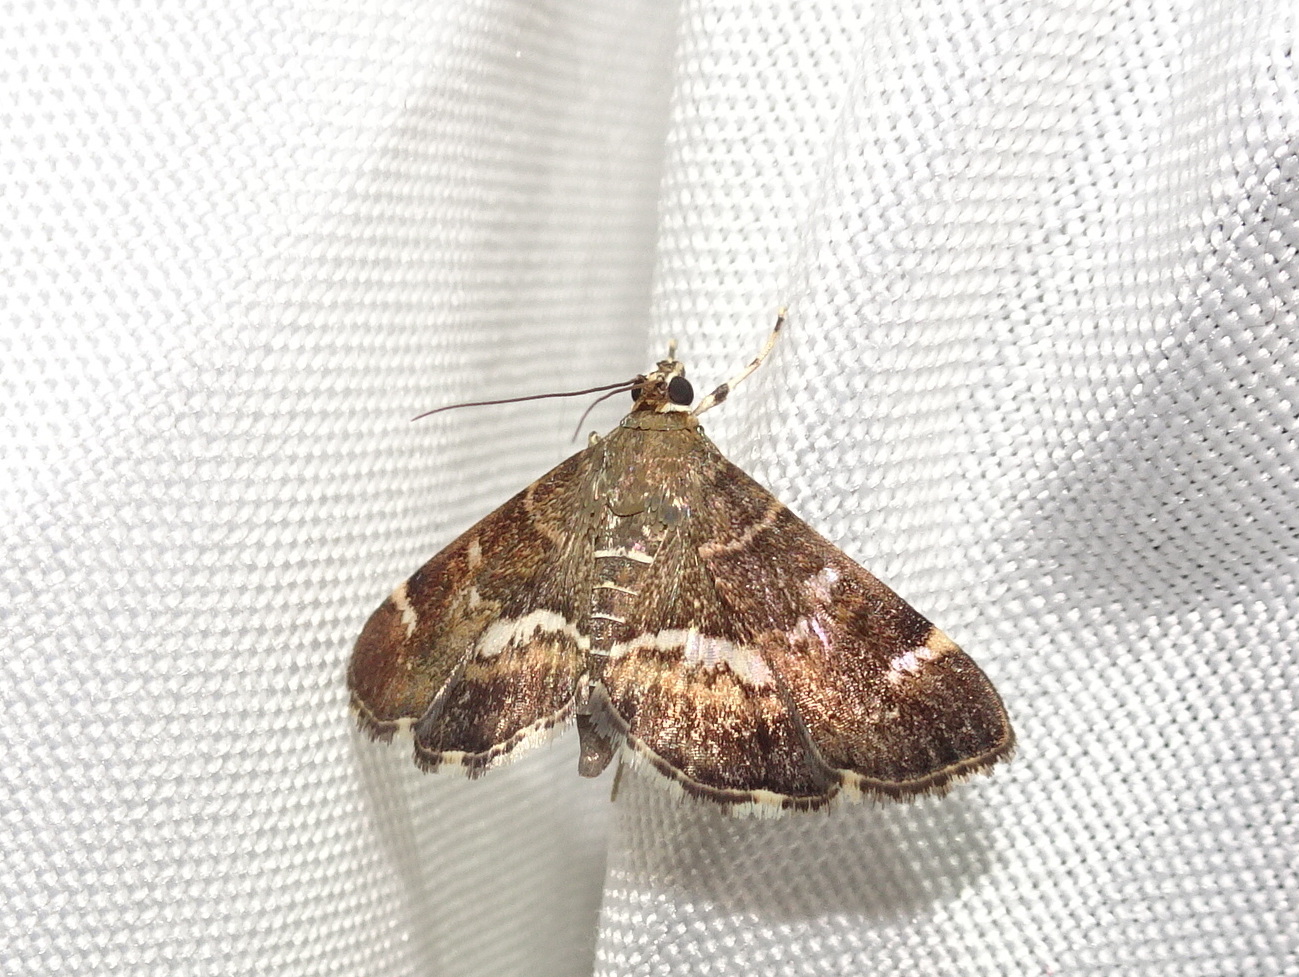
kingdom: Animalia
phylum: Arthropoda
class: Insecta
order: Lepidoptera
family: Crambidae
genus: Hymenia
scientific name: Hymenia perspectalis
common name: Spotted beet webworm
